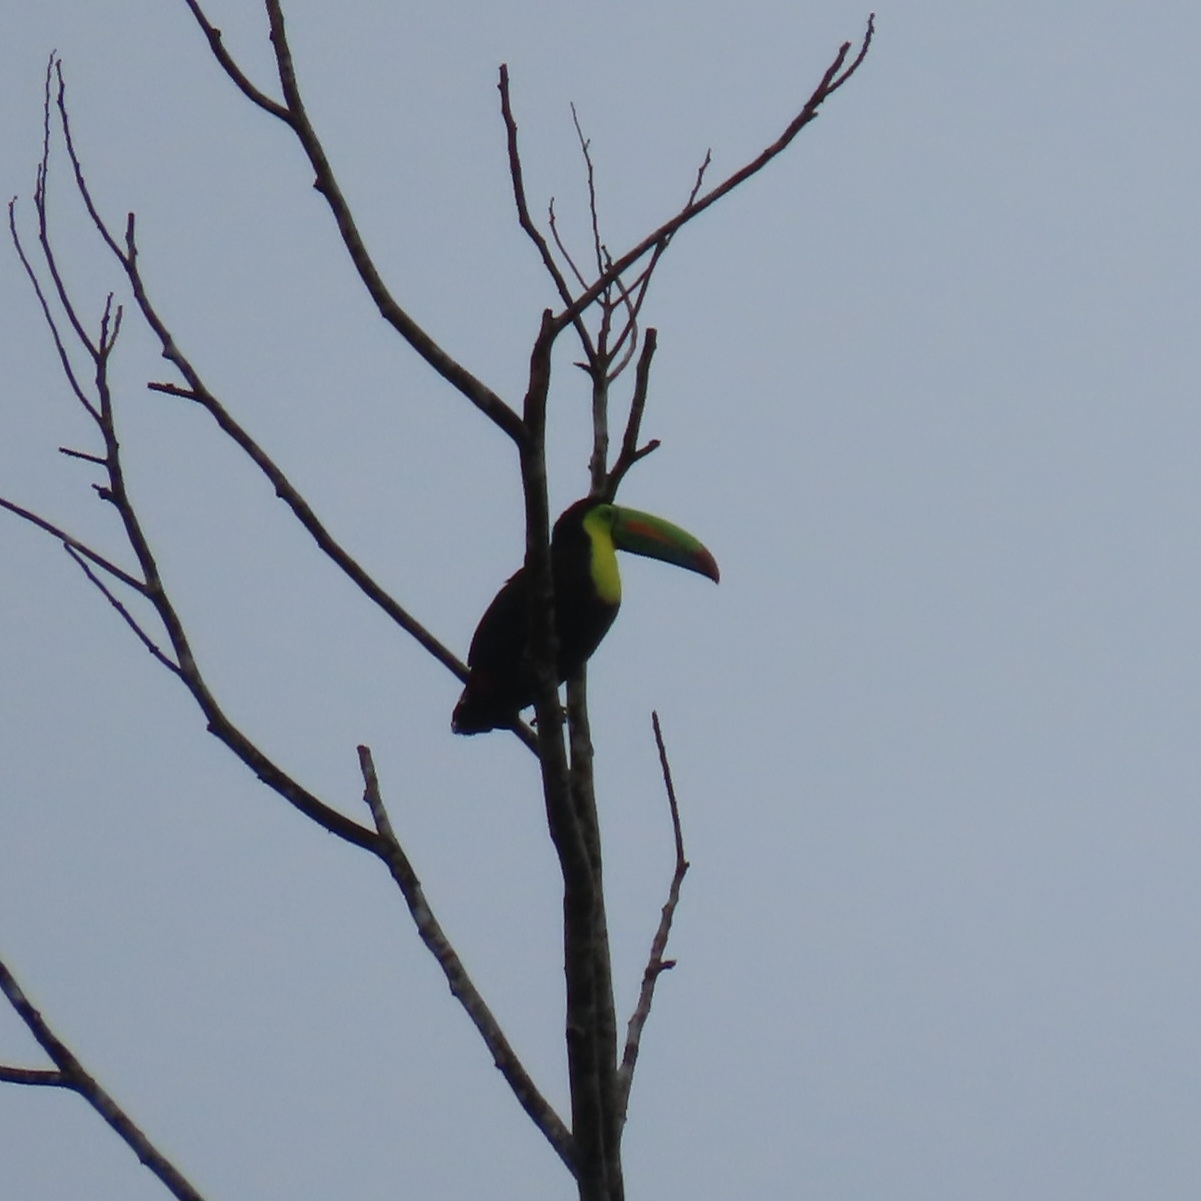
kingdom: Animalia
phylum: Chordata
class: Aves
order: Piciformes
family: Ramphastidae
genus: Ramphastos
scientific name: Ramphastos sulfuratus
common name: Keel-billed toucan
